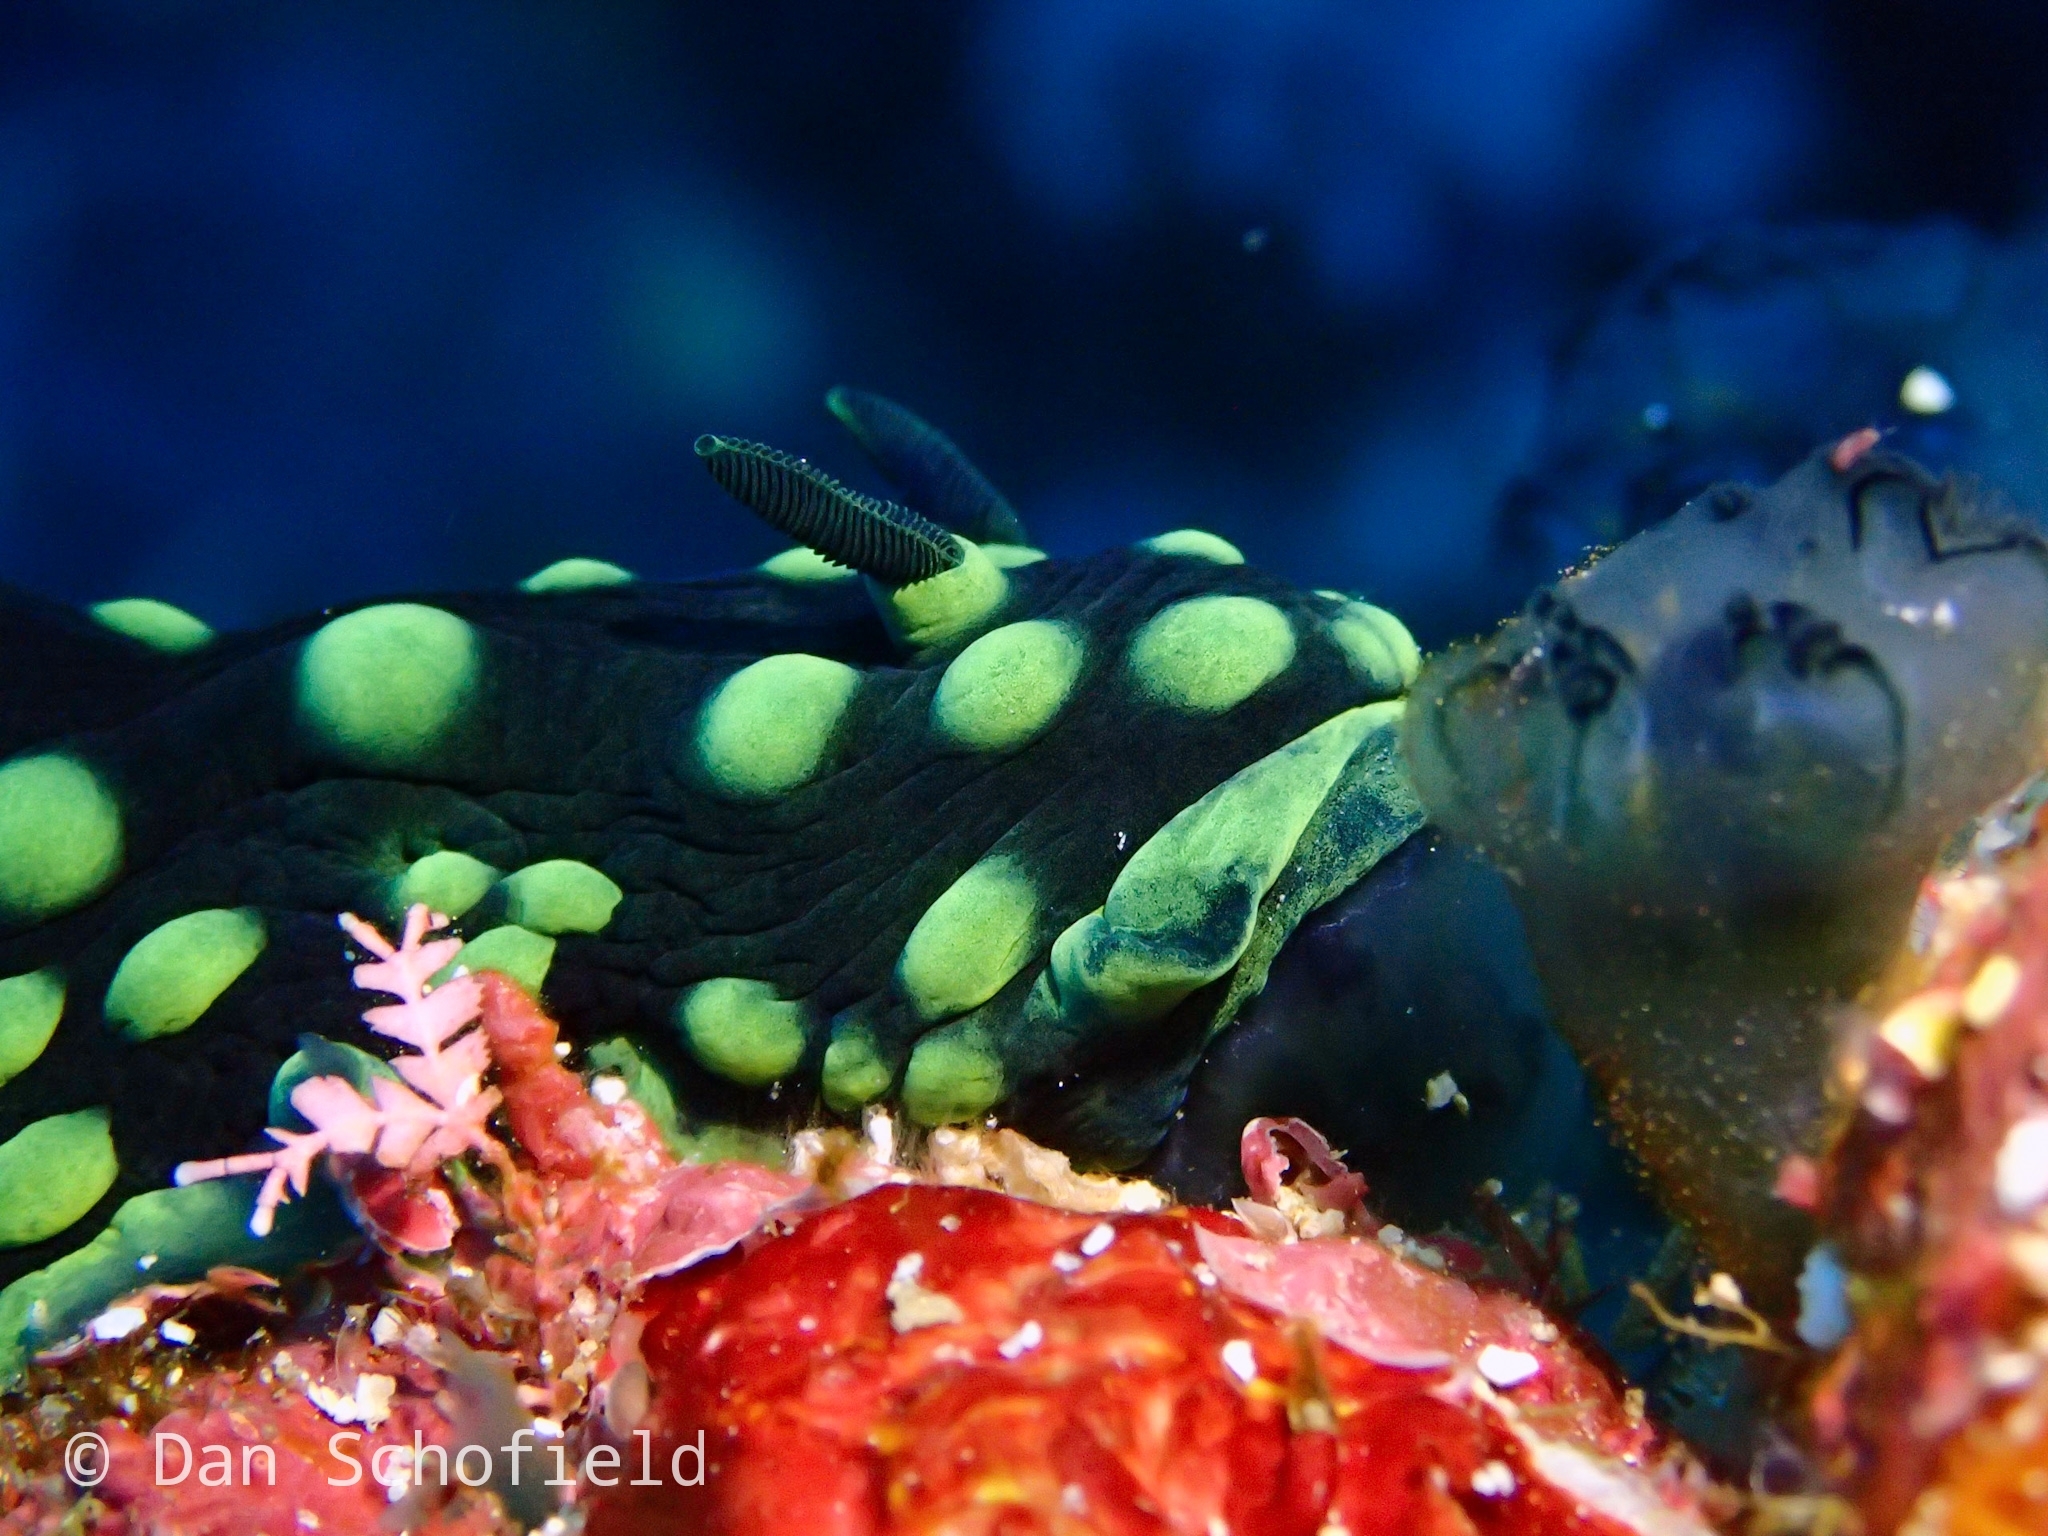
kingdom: Animalia
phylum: Mollusca
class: Gastropoda
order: Nudibranchia
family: Polyceridae
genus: Nembrotha
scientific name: Nembrotha cristata
